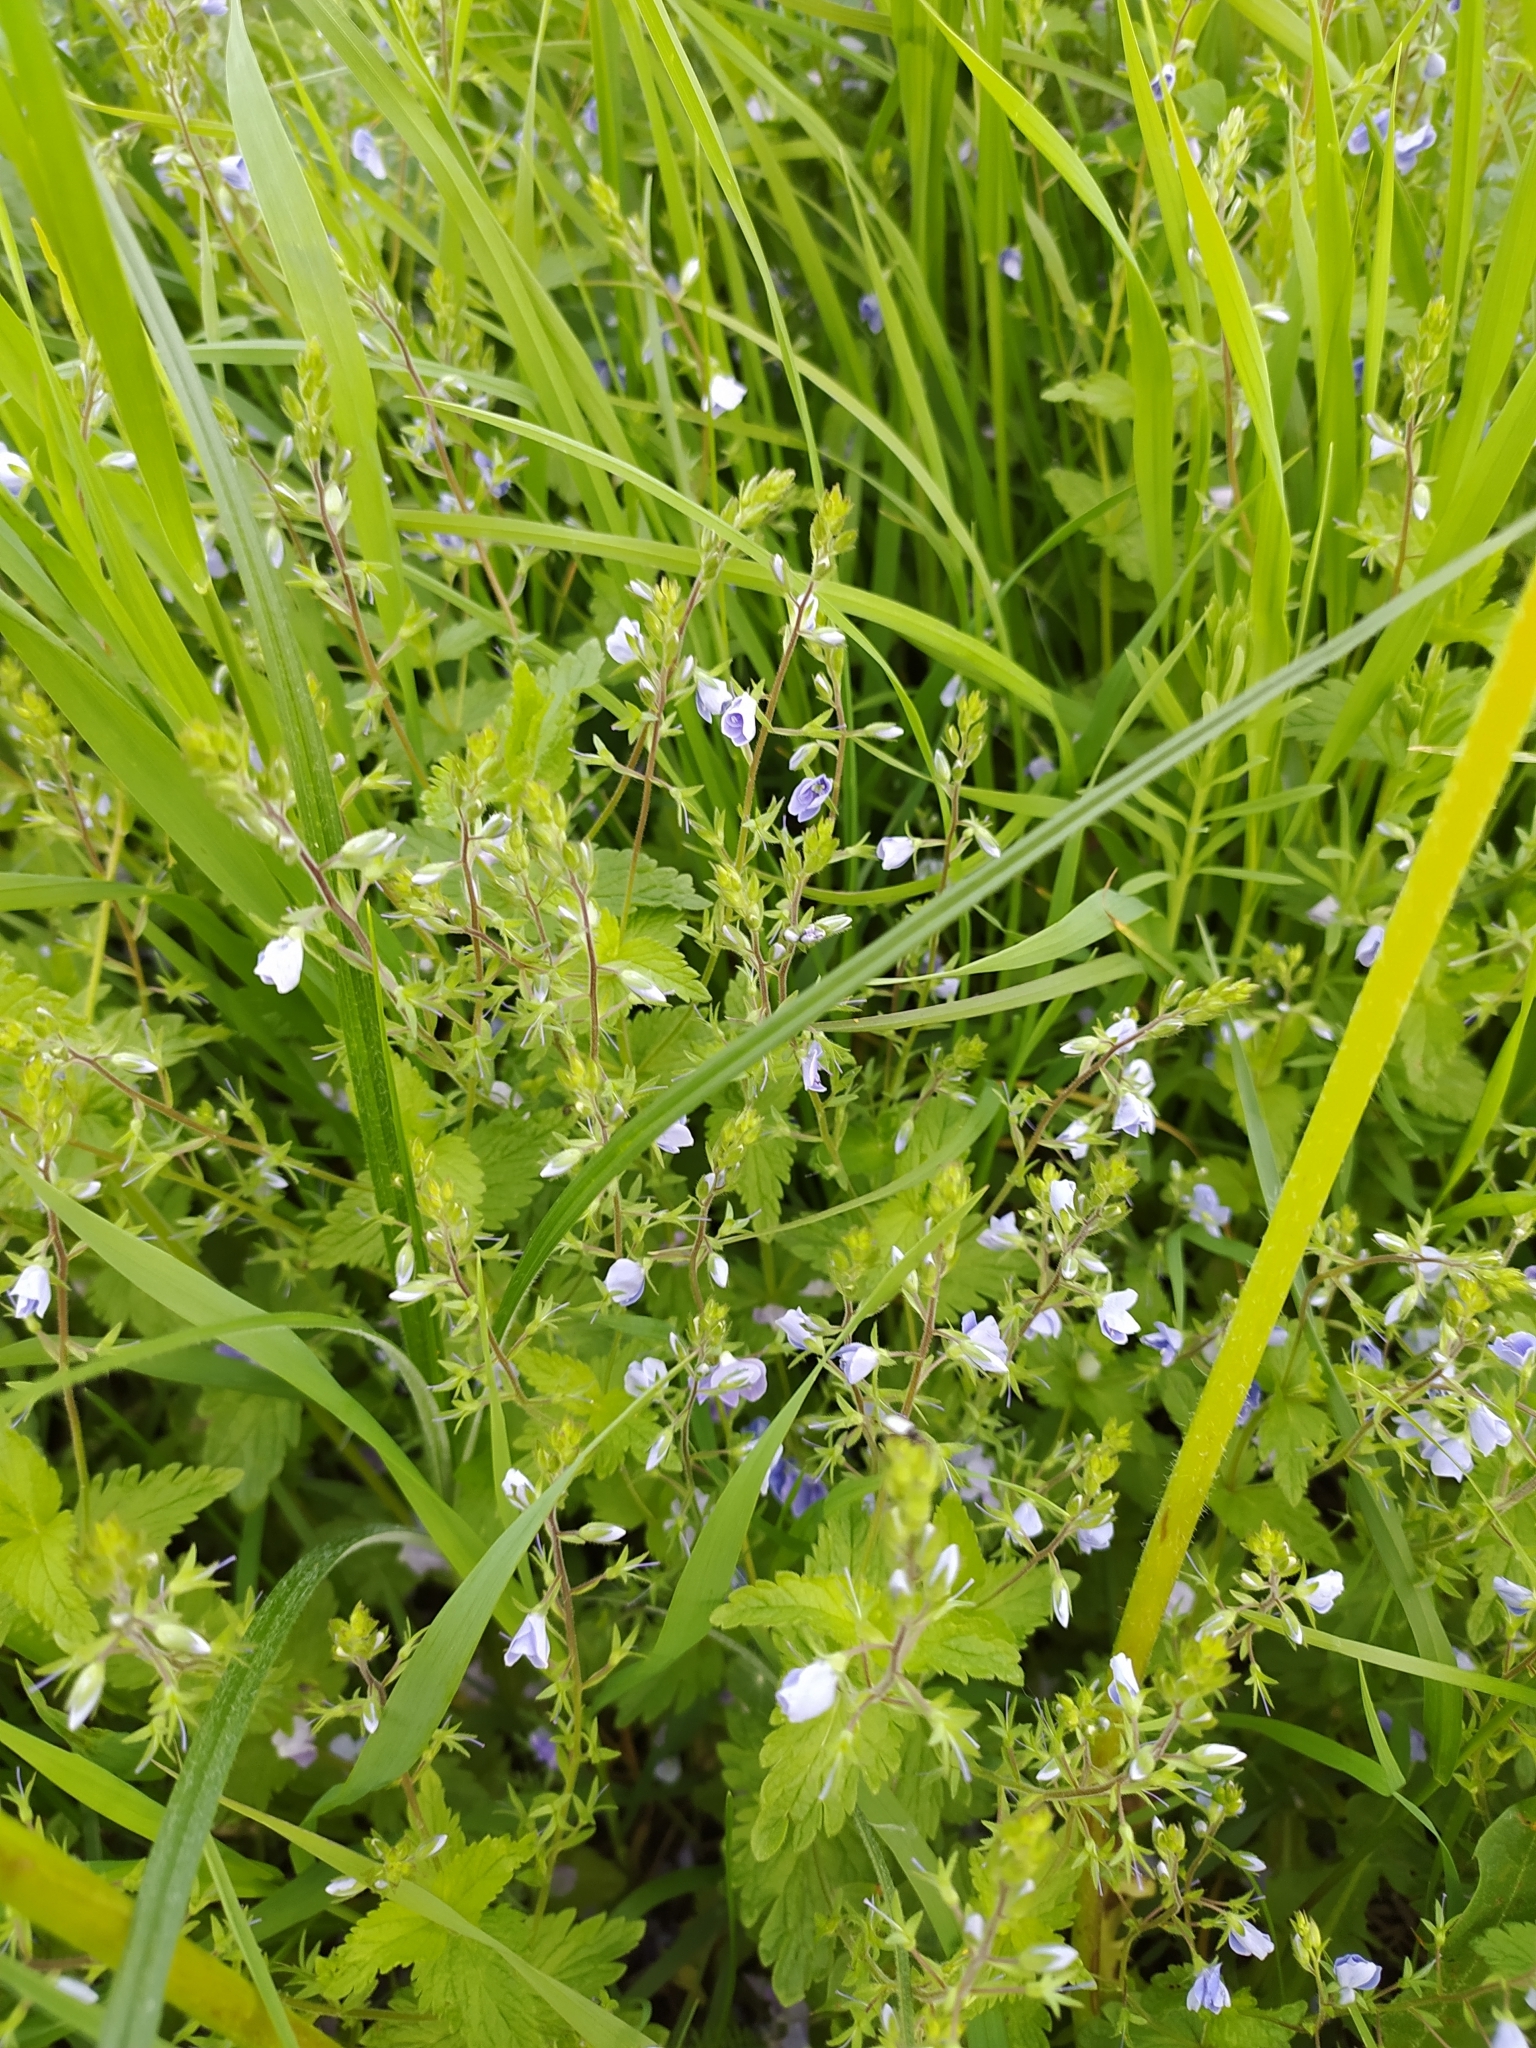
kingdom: Plantae
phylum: Tracheophyta
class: Magnoliopsida
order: Lamiales
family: Plantaginaceae
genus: Veronica
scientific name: Veronica chamaedrys
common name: Germander speedwell
